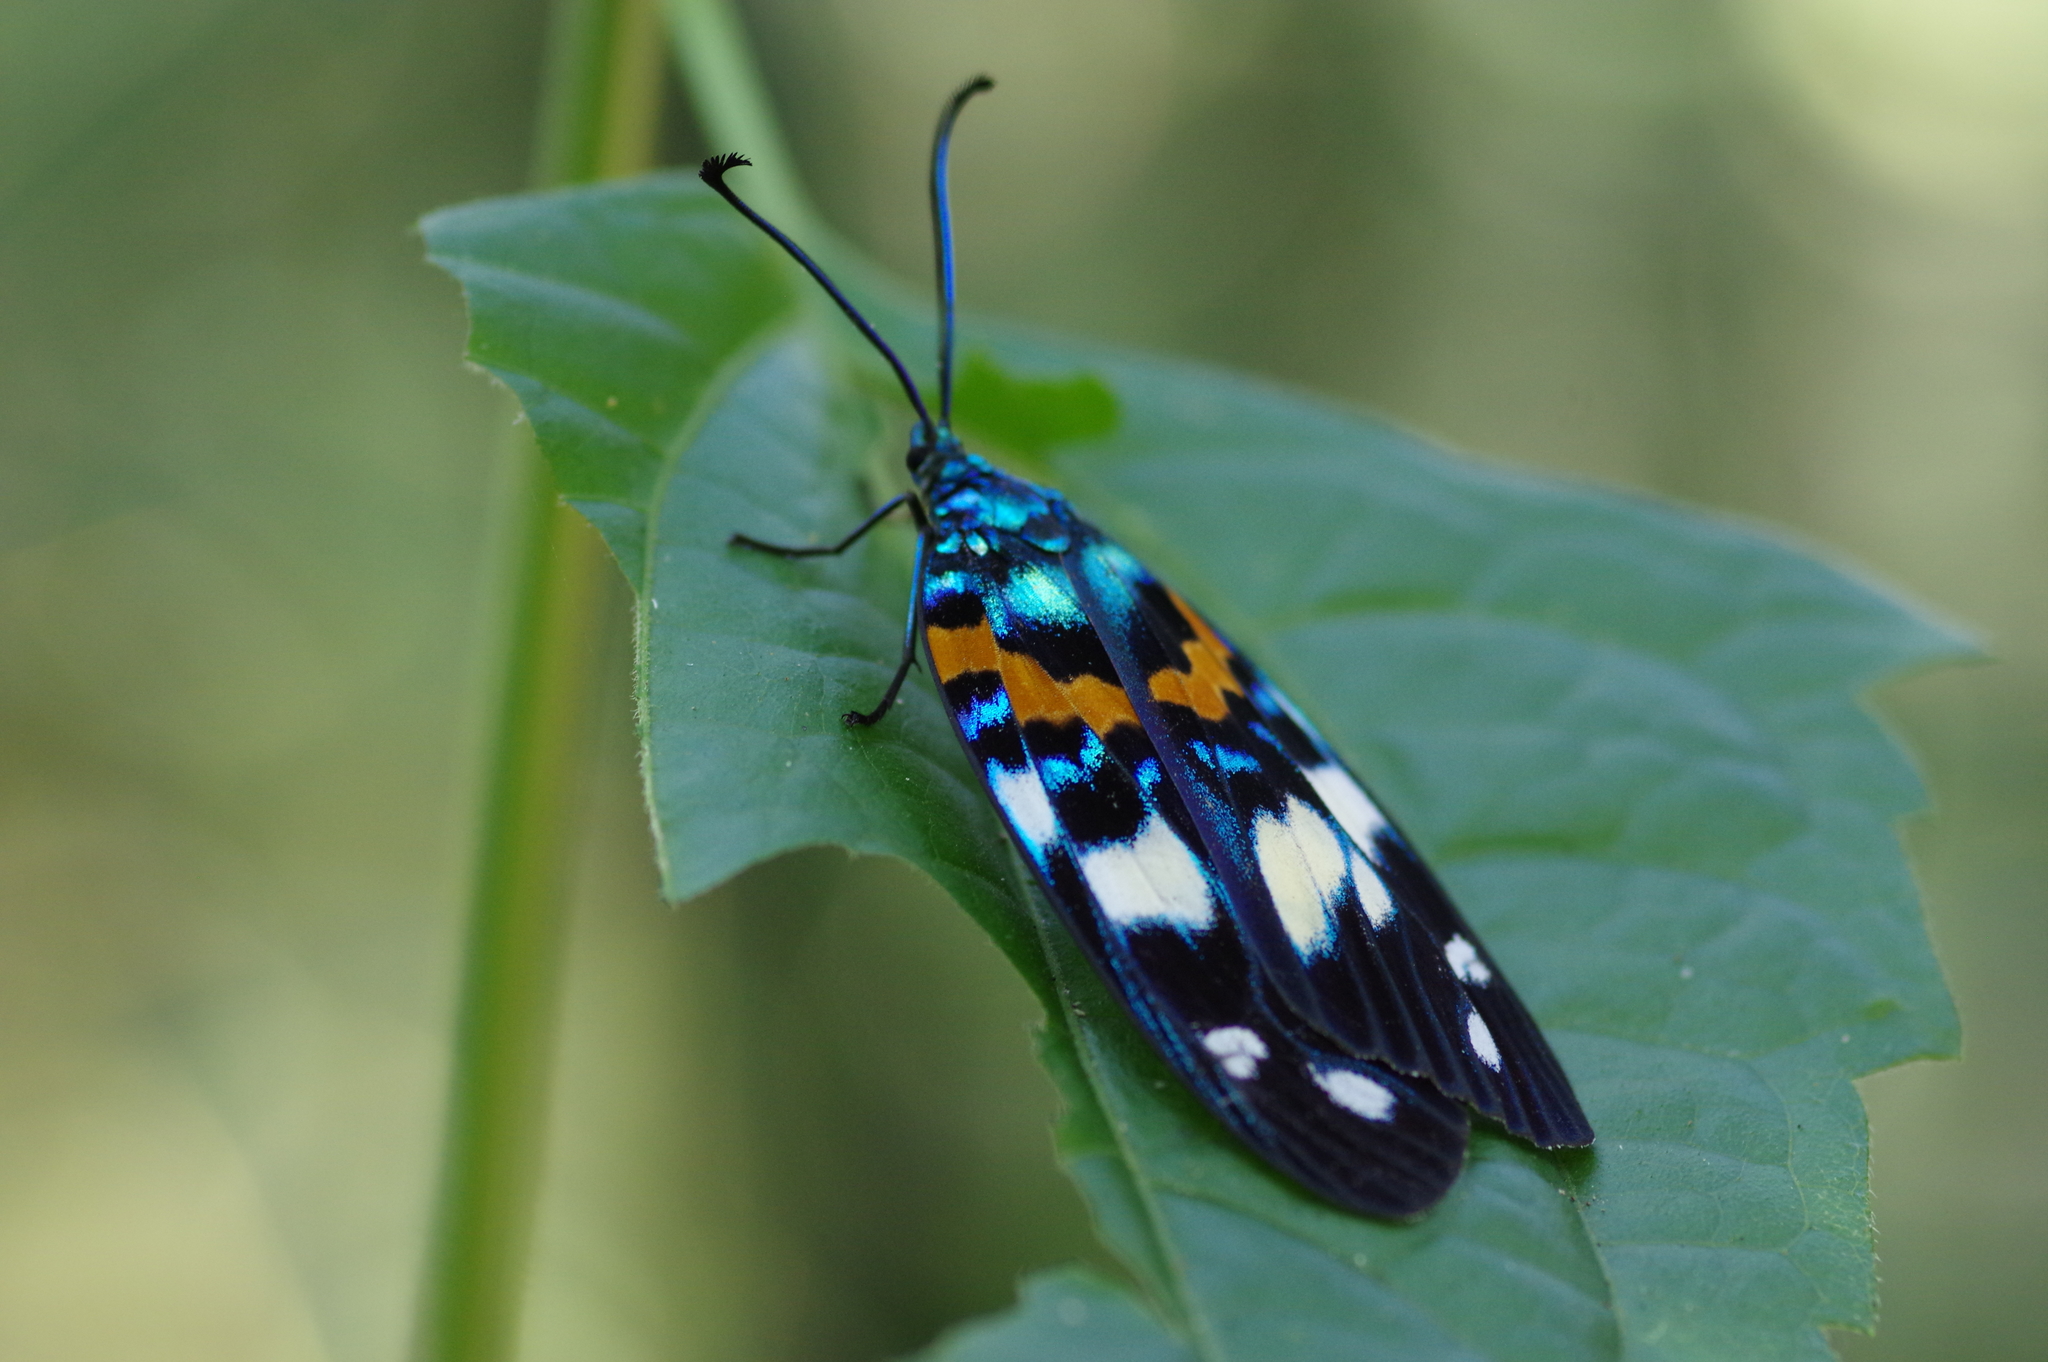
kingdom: Animalia
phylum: Arthropoda
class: Insecta
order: Lepidoptera
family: Zygaenidae
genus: Erasmia
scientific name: Erasmia pulchella
